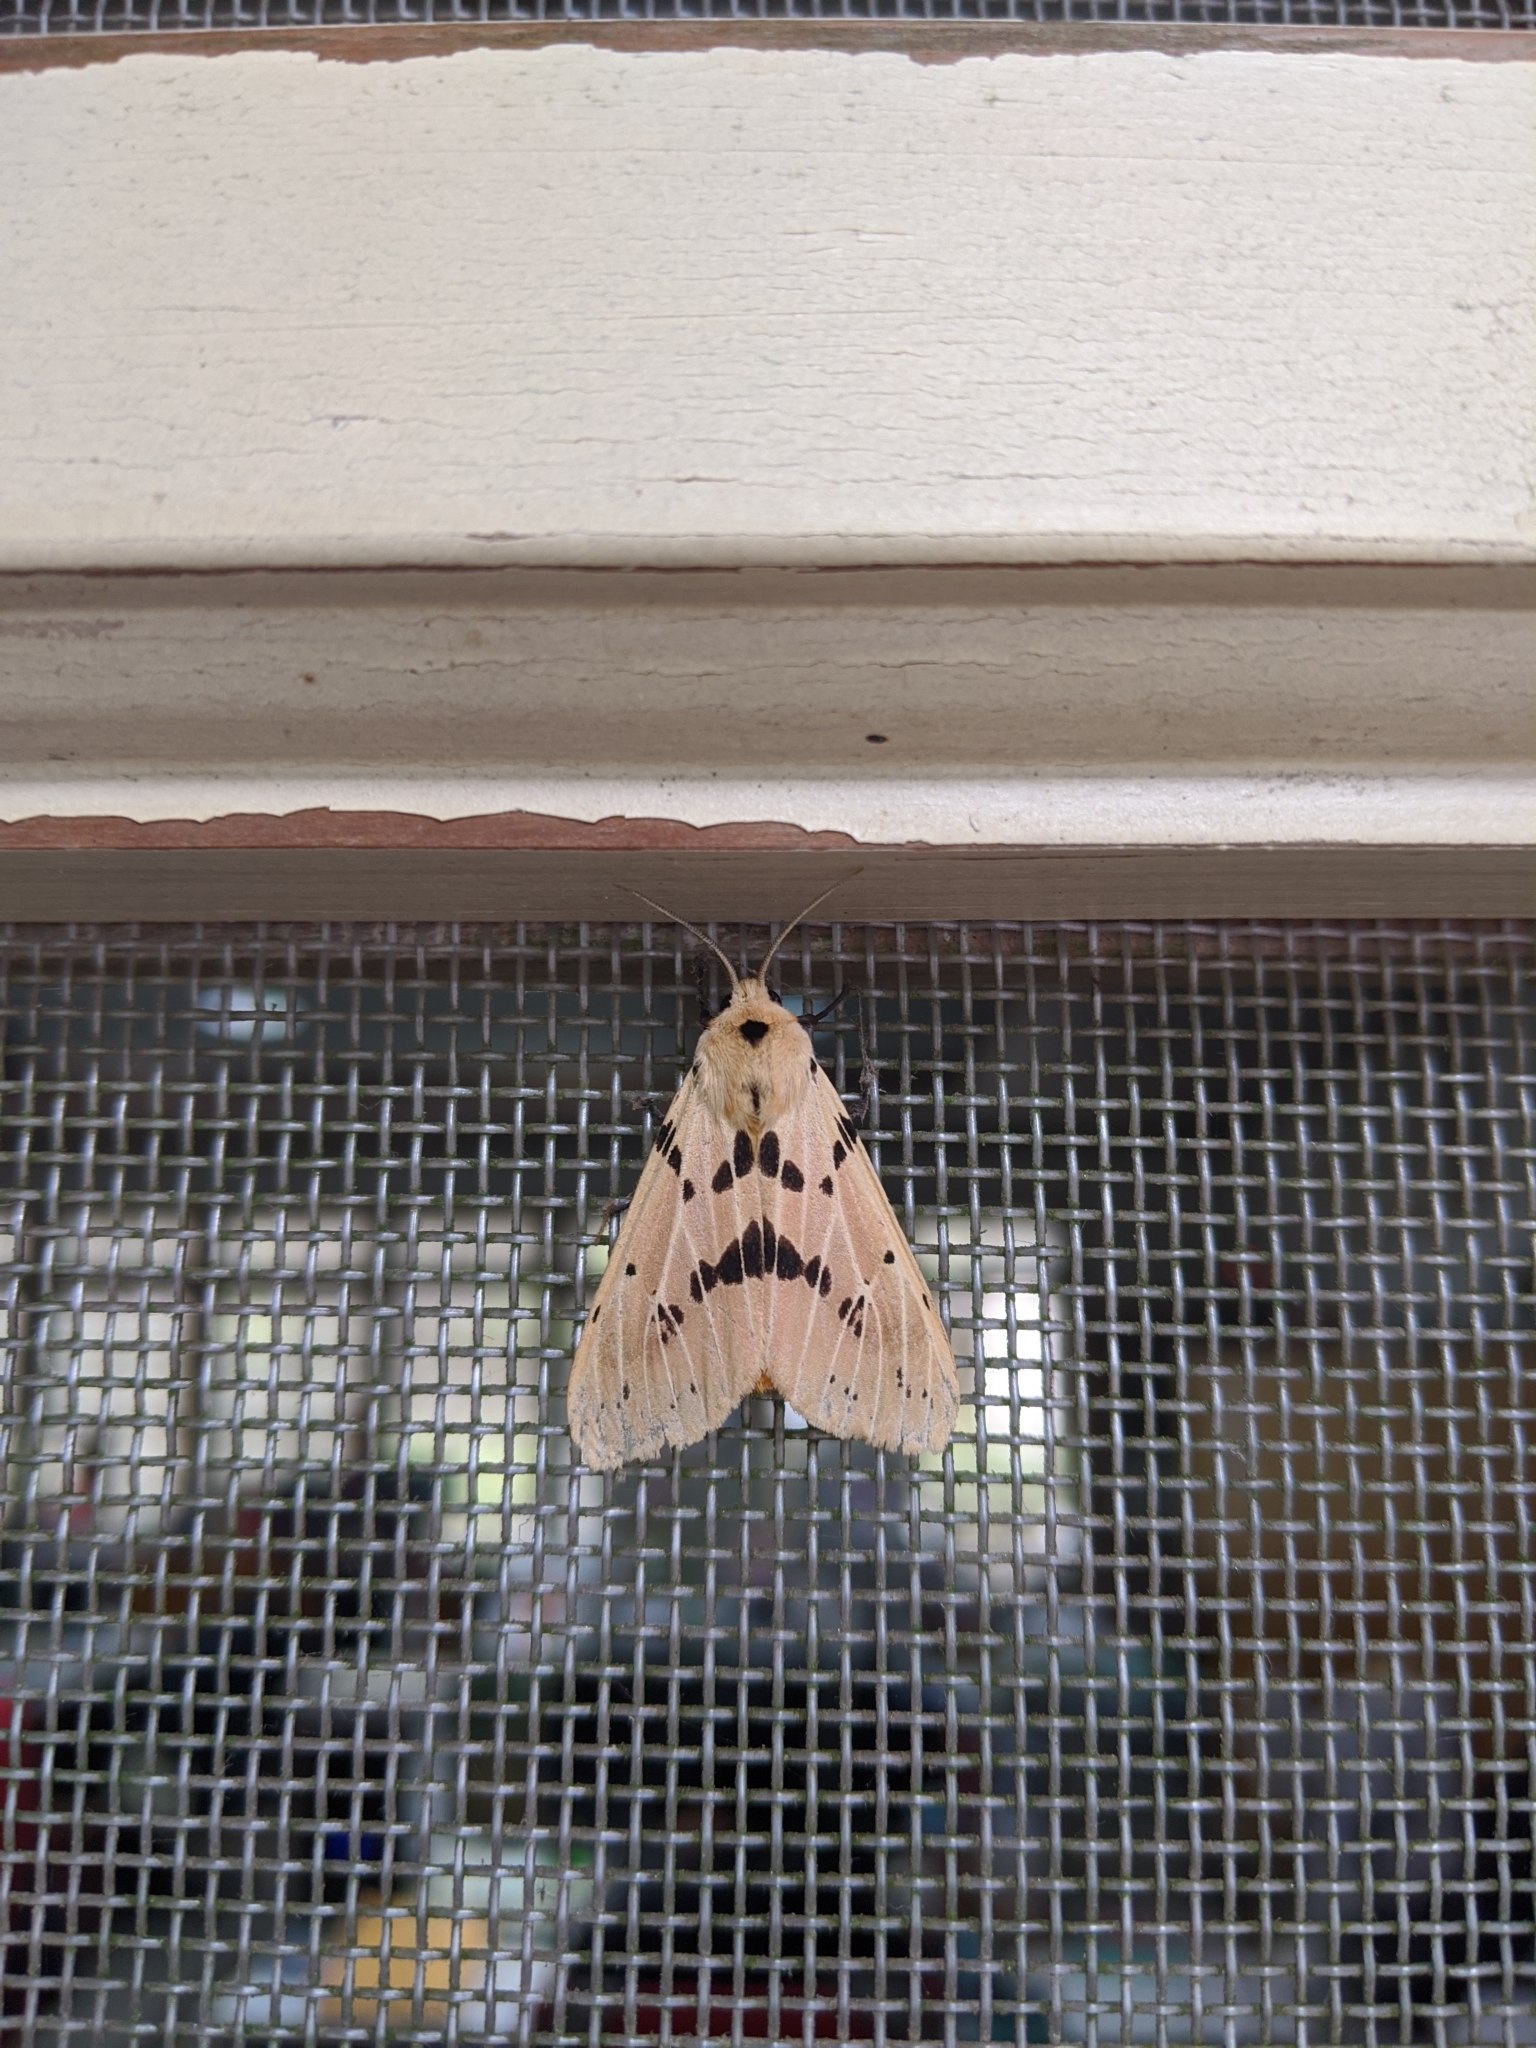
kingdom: Animalia
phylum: Arthropoda
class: Insecta
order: Lepidoptera
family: Erebidae
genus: Spilarctia
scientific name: Spilarctia postrubida
